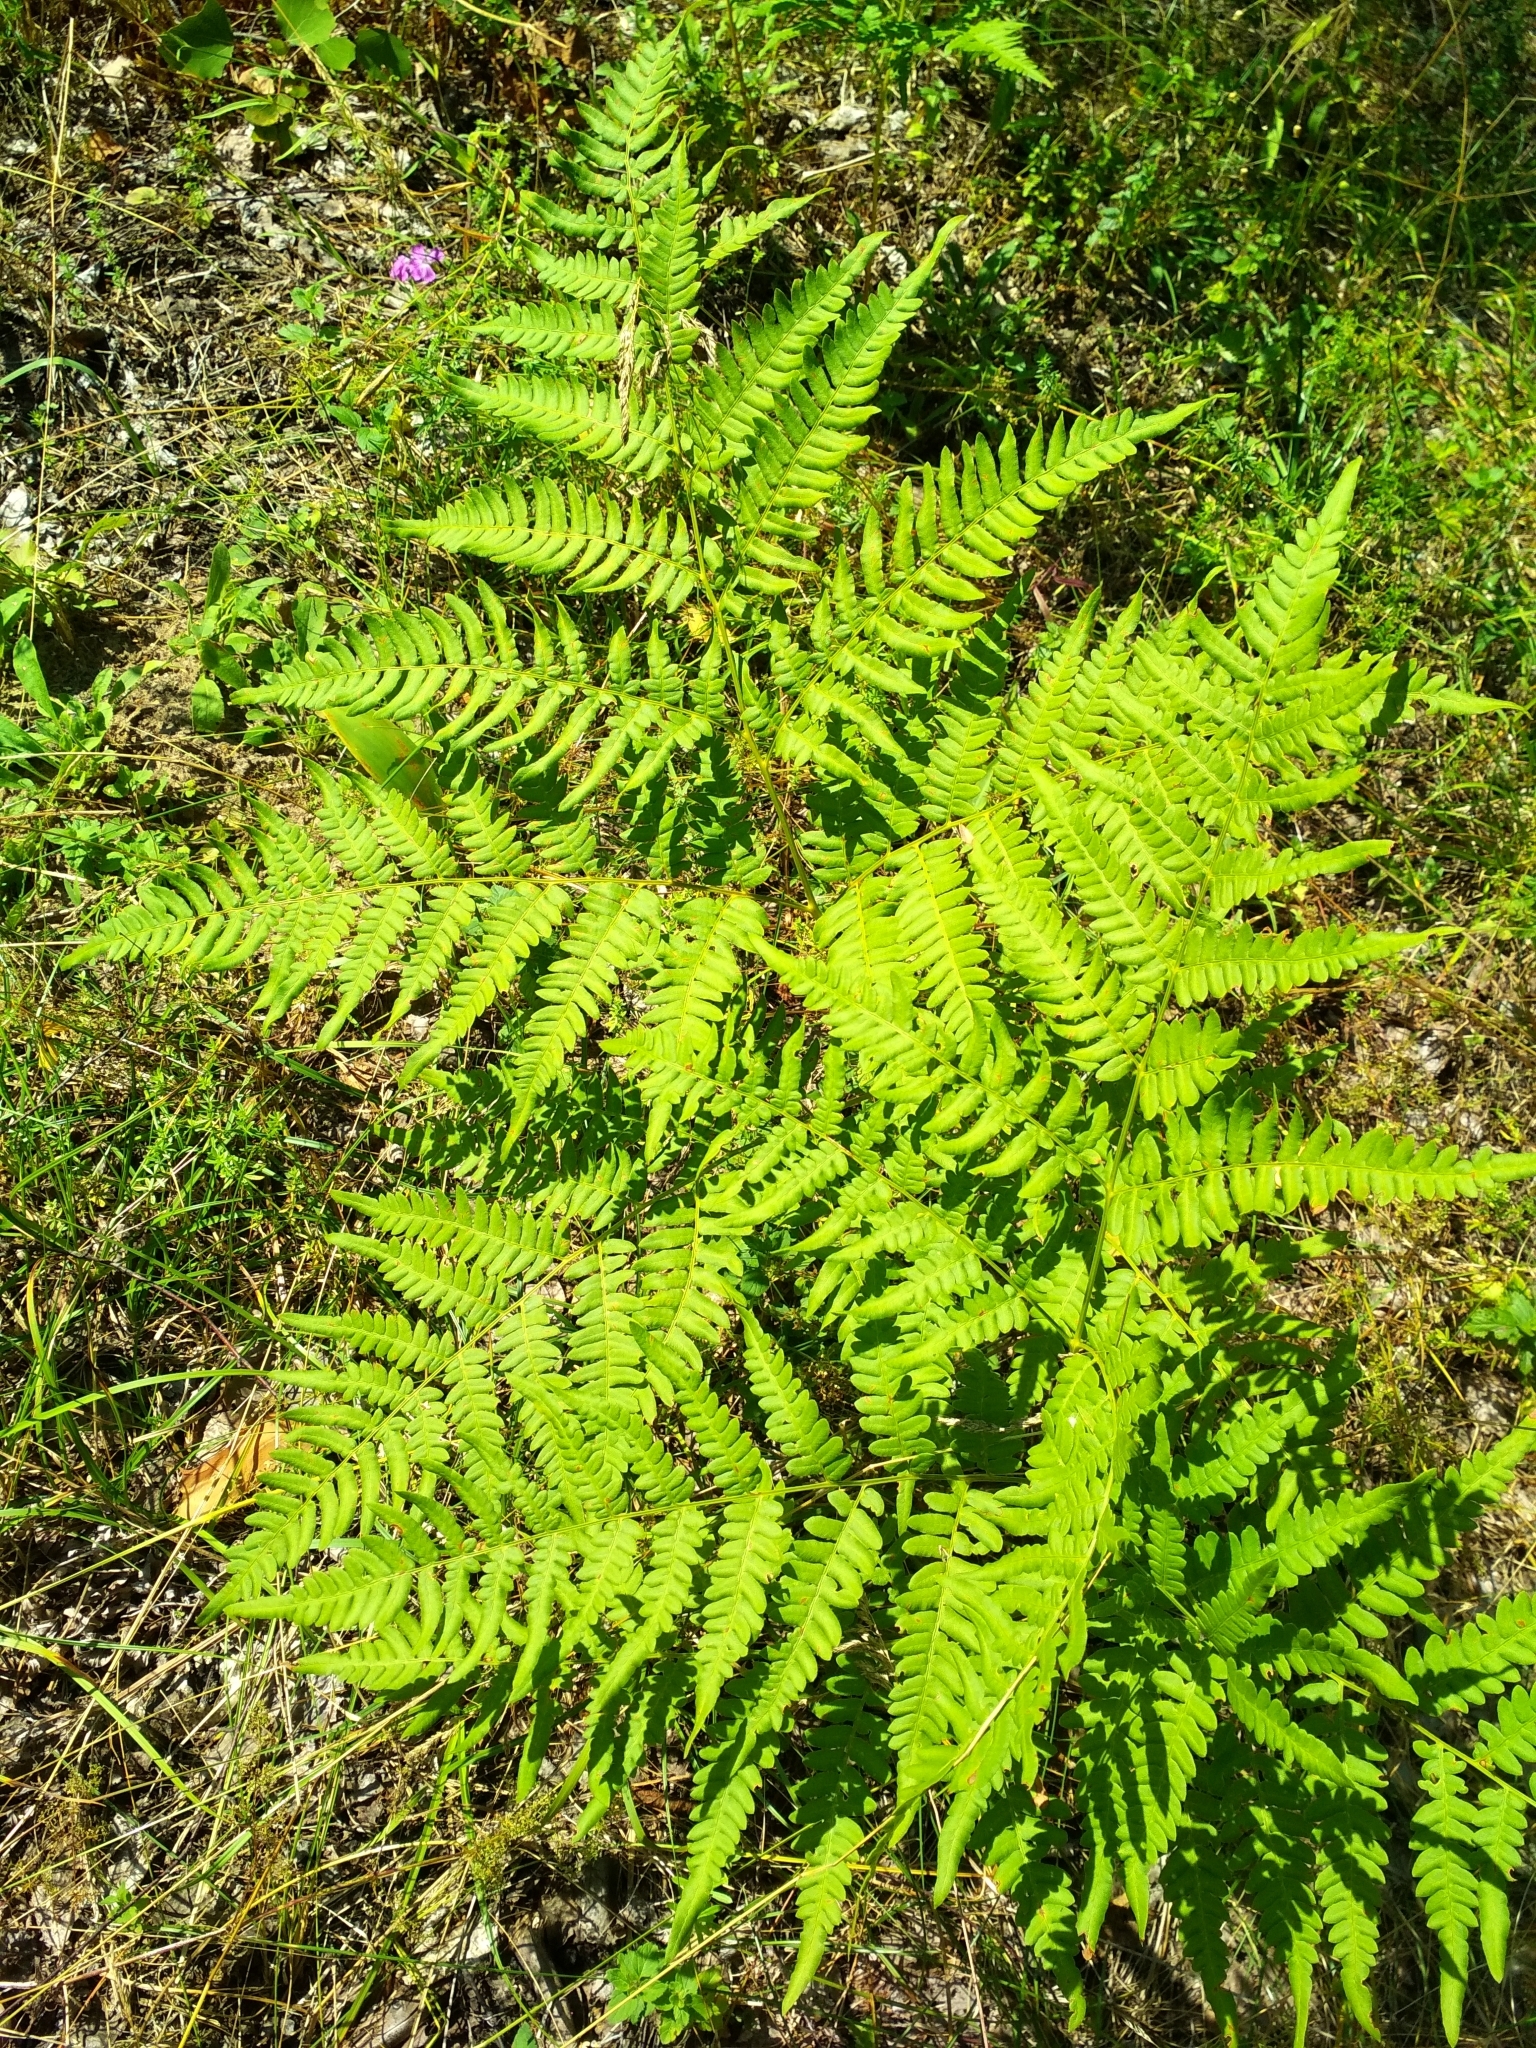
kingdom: Plantae
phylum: Tracheophyta
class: Polypodiopsida
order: Polypodiales
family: Dennstaedtiaceae
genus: Pteridium
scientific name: Pteridium aquilinum
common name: Bracken
